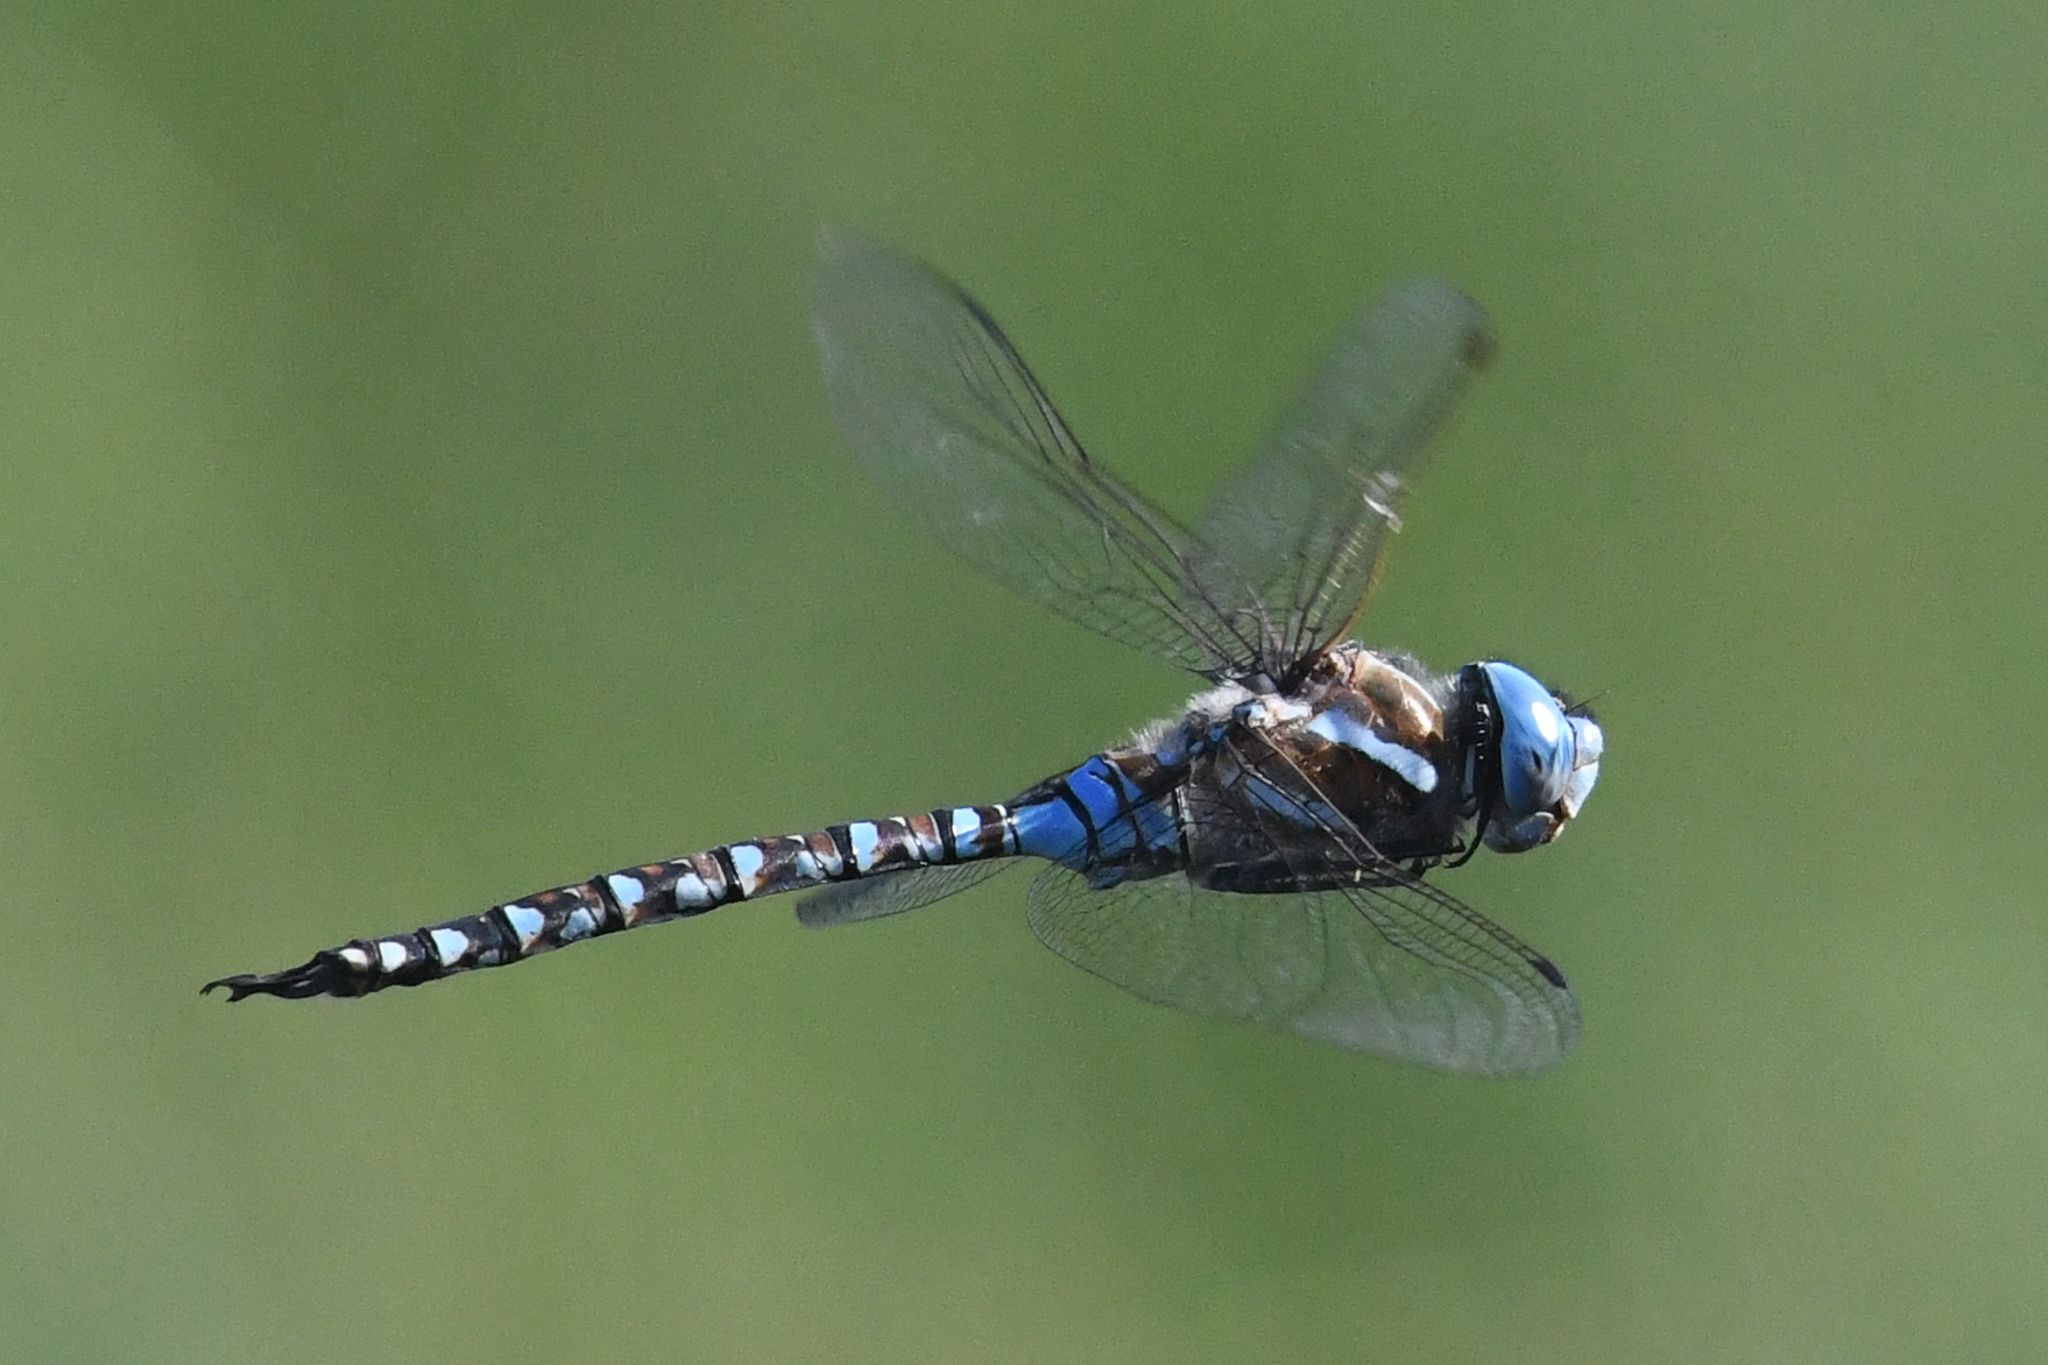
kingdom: Animalia
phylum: Arthropoda
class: Insecta
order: Odonata
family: Aeshnidae
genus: Rhionaeschna
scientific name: Rhionaeschna multicolor
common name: Blue-eyed darner
